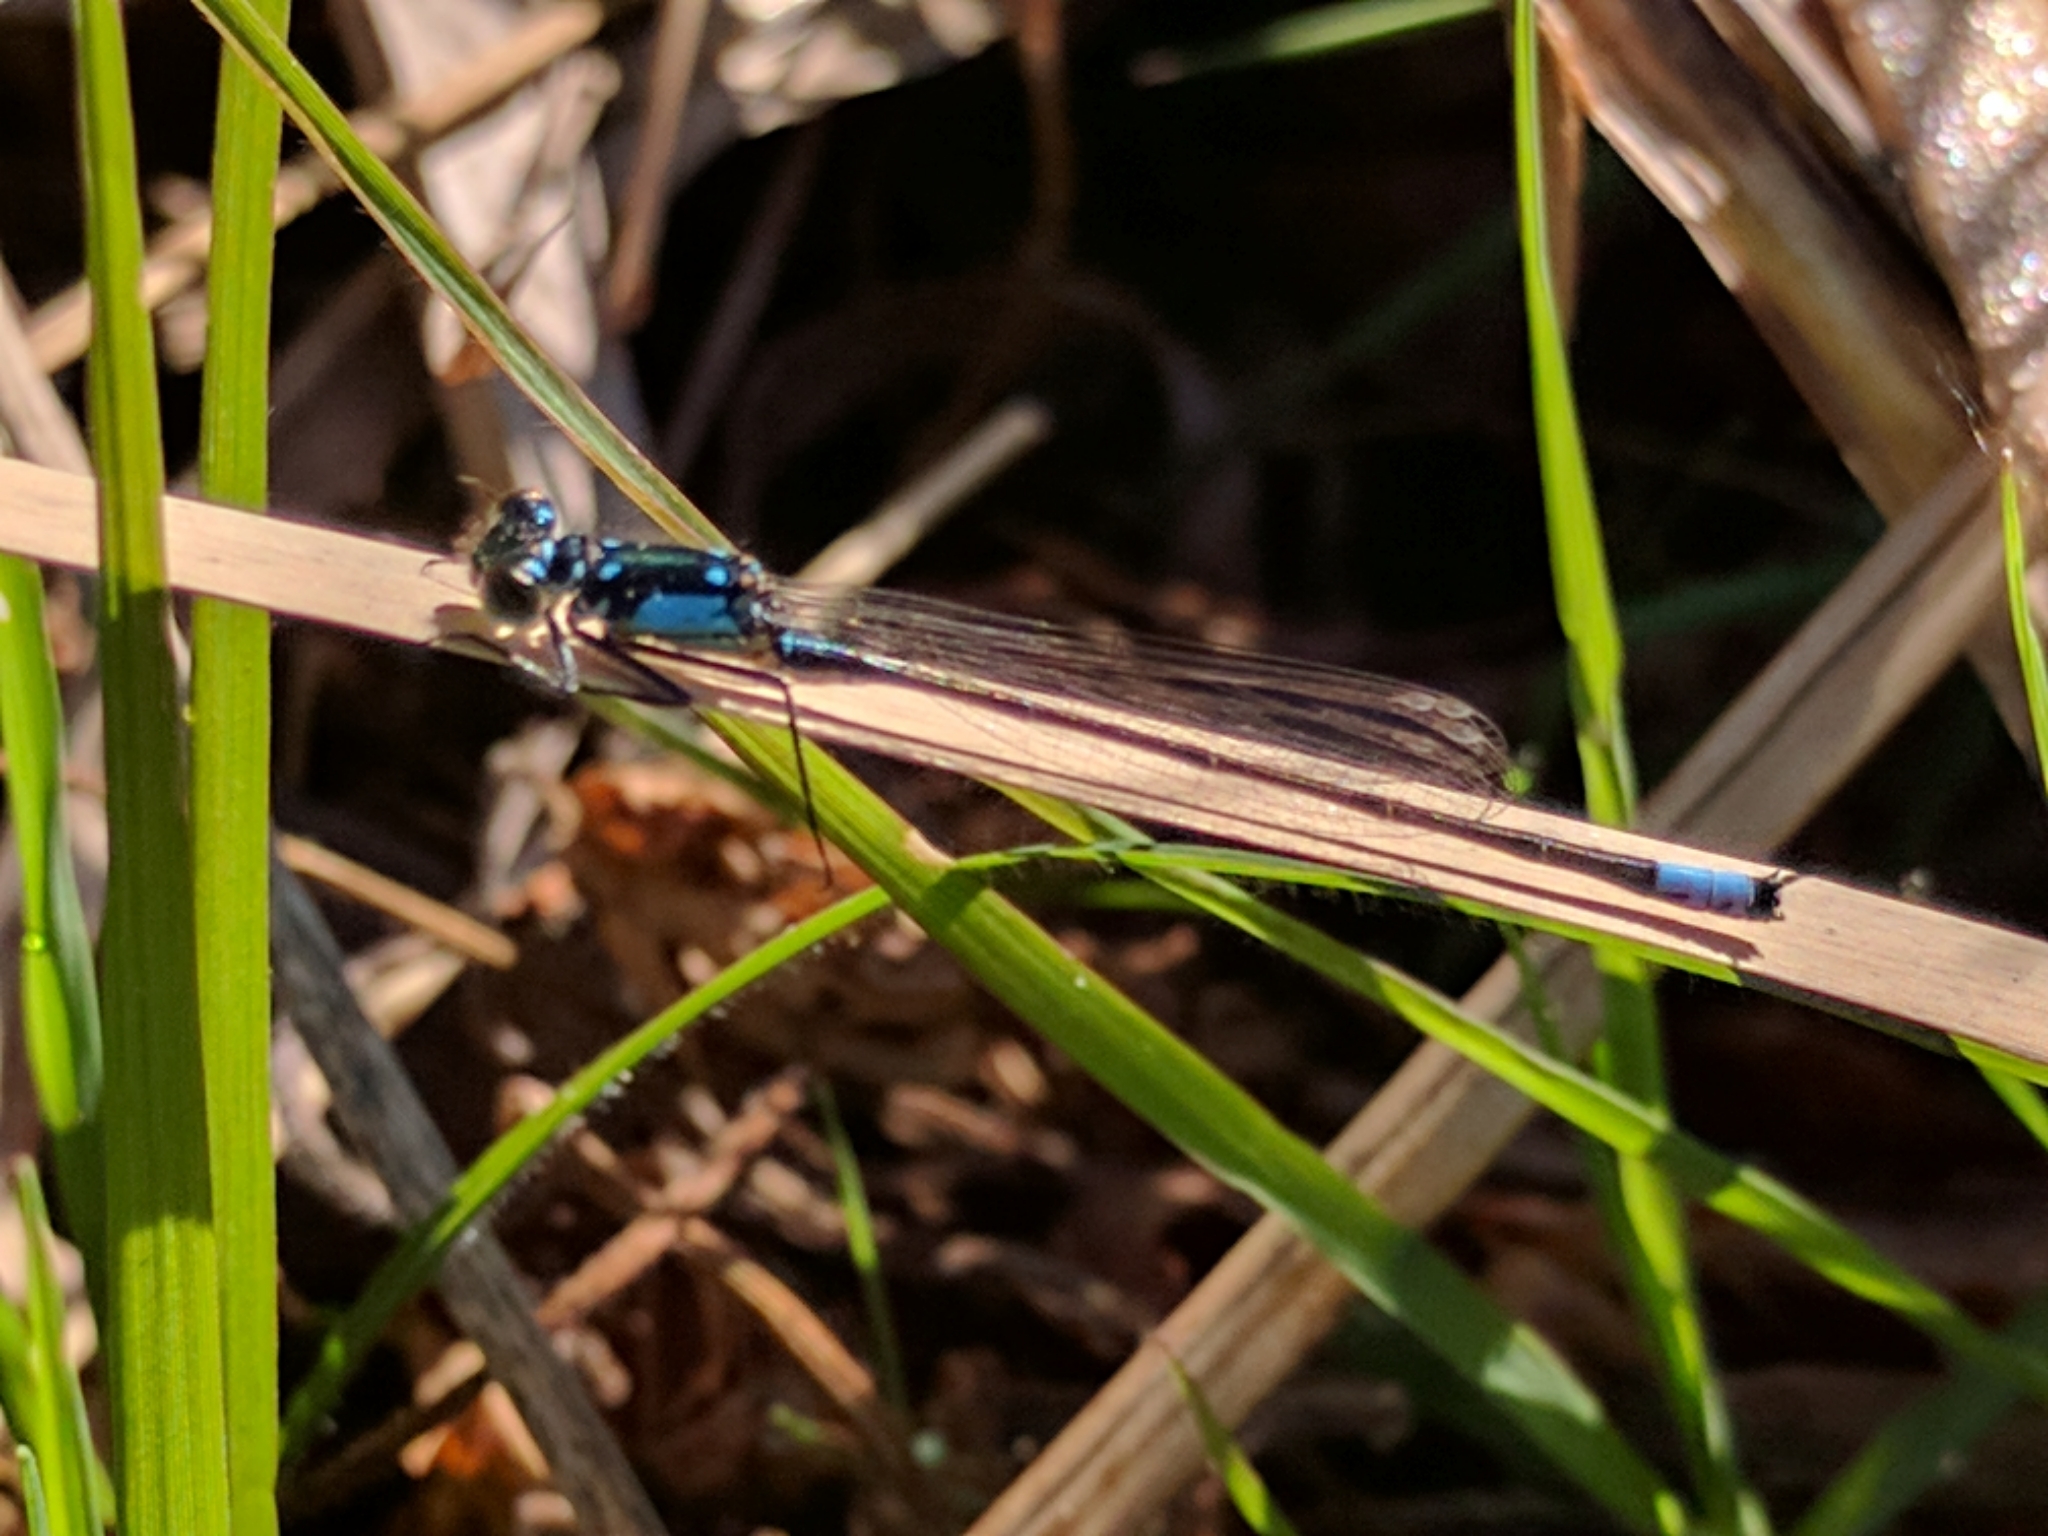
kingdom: Animalia
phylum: Arthropoda
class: Insecta
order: Odonata
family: Coenagrionidae
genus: Ischnura
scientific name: Ischnura cervula
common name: Pacific forktail
